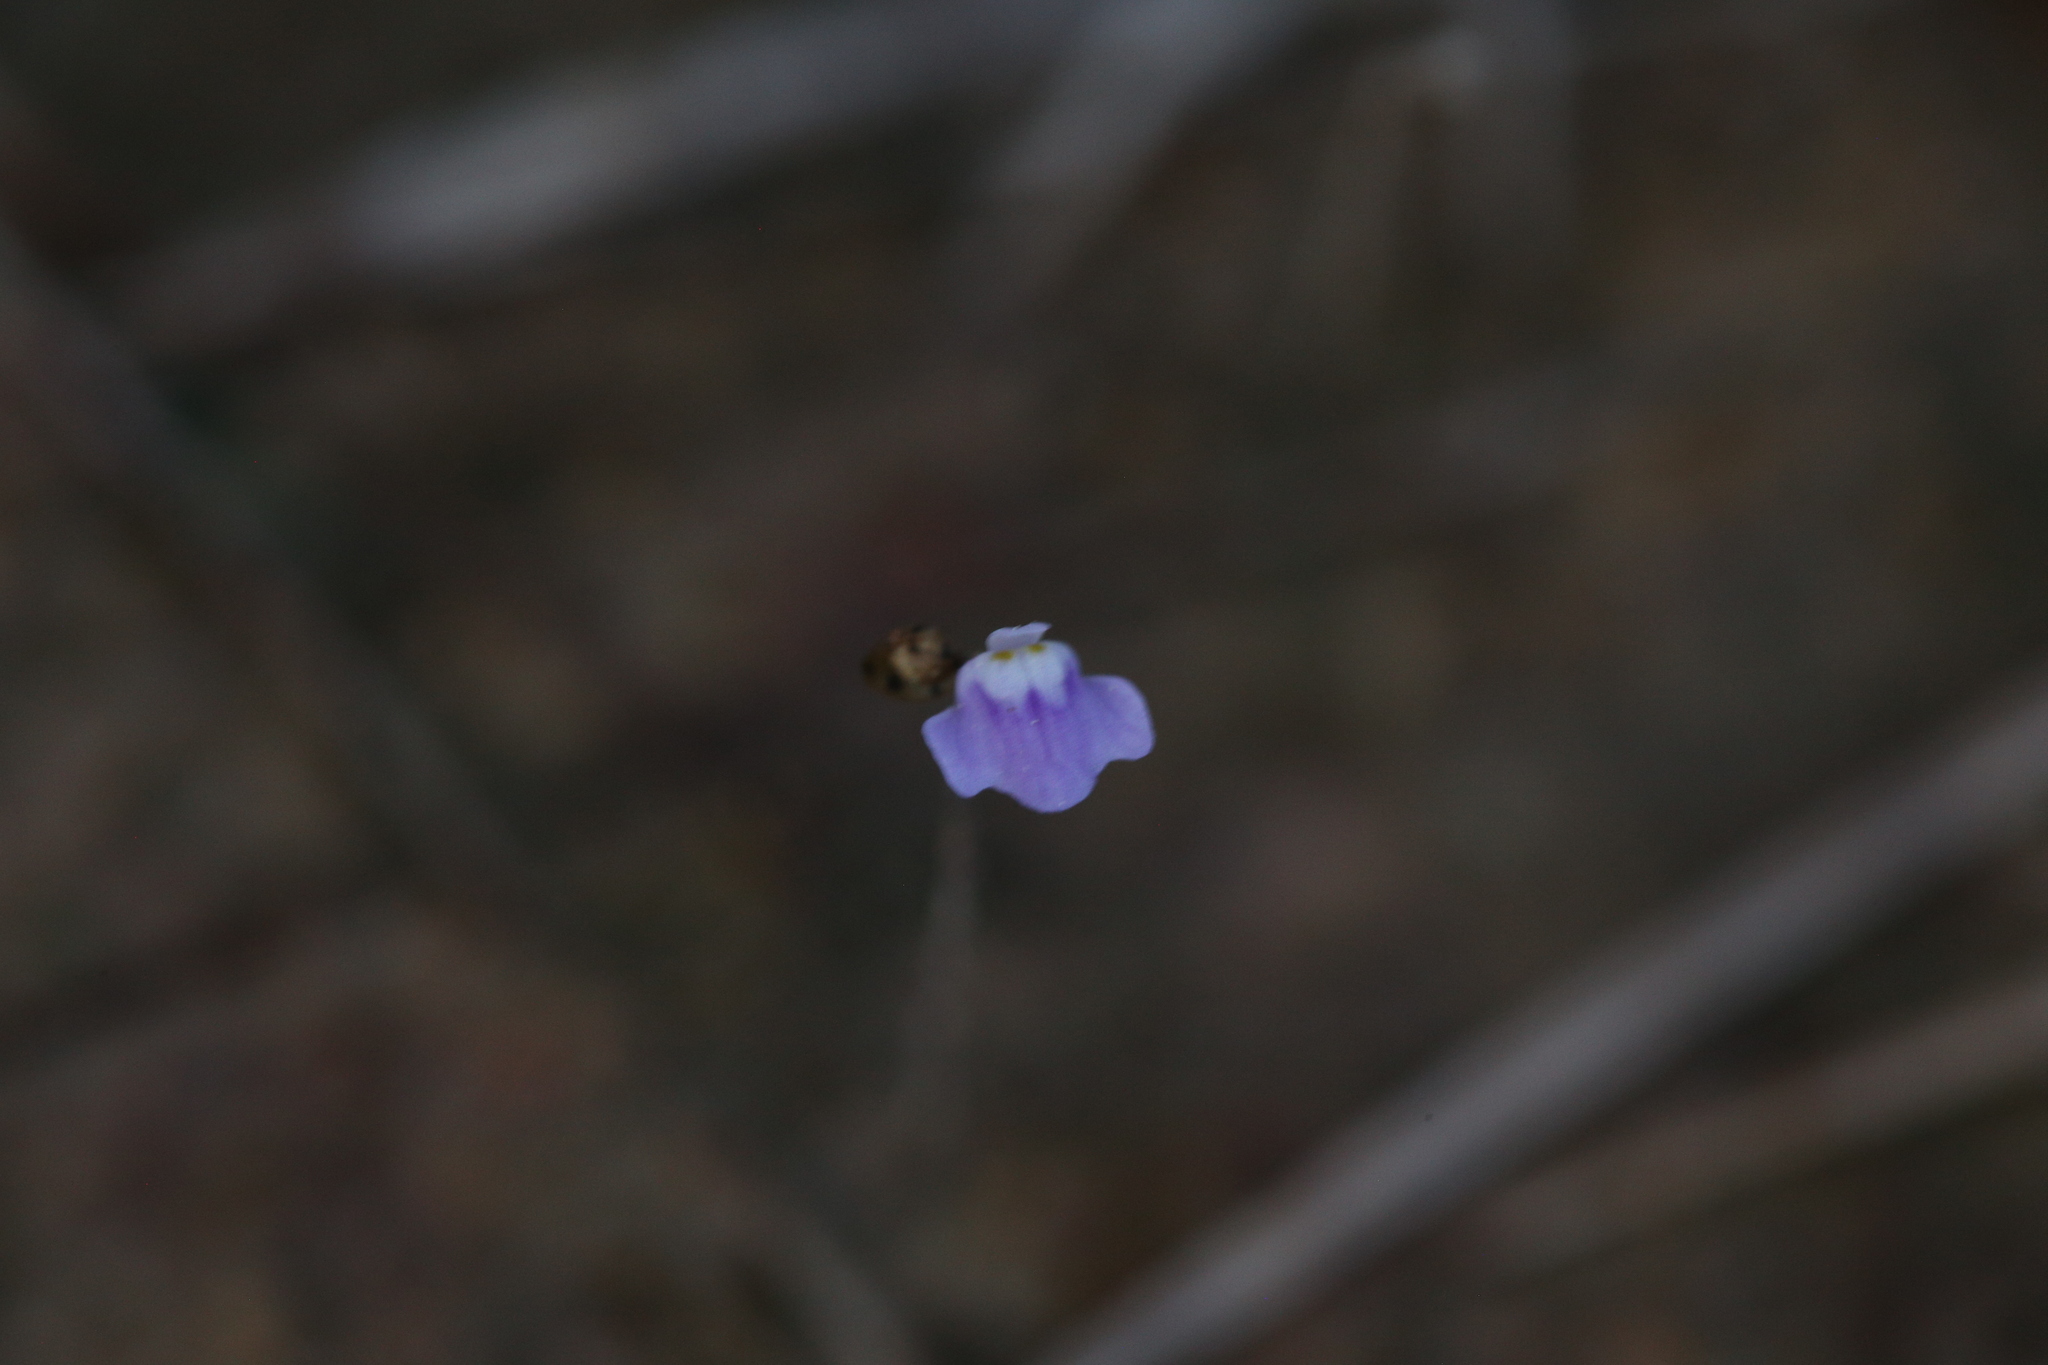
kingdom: Plantae
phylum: Tracheophyta
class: Magnoliopsida
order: Lamiales
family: Lentibulariaceae
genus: Utricularia
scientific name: Utricularia geoffrayi
